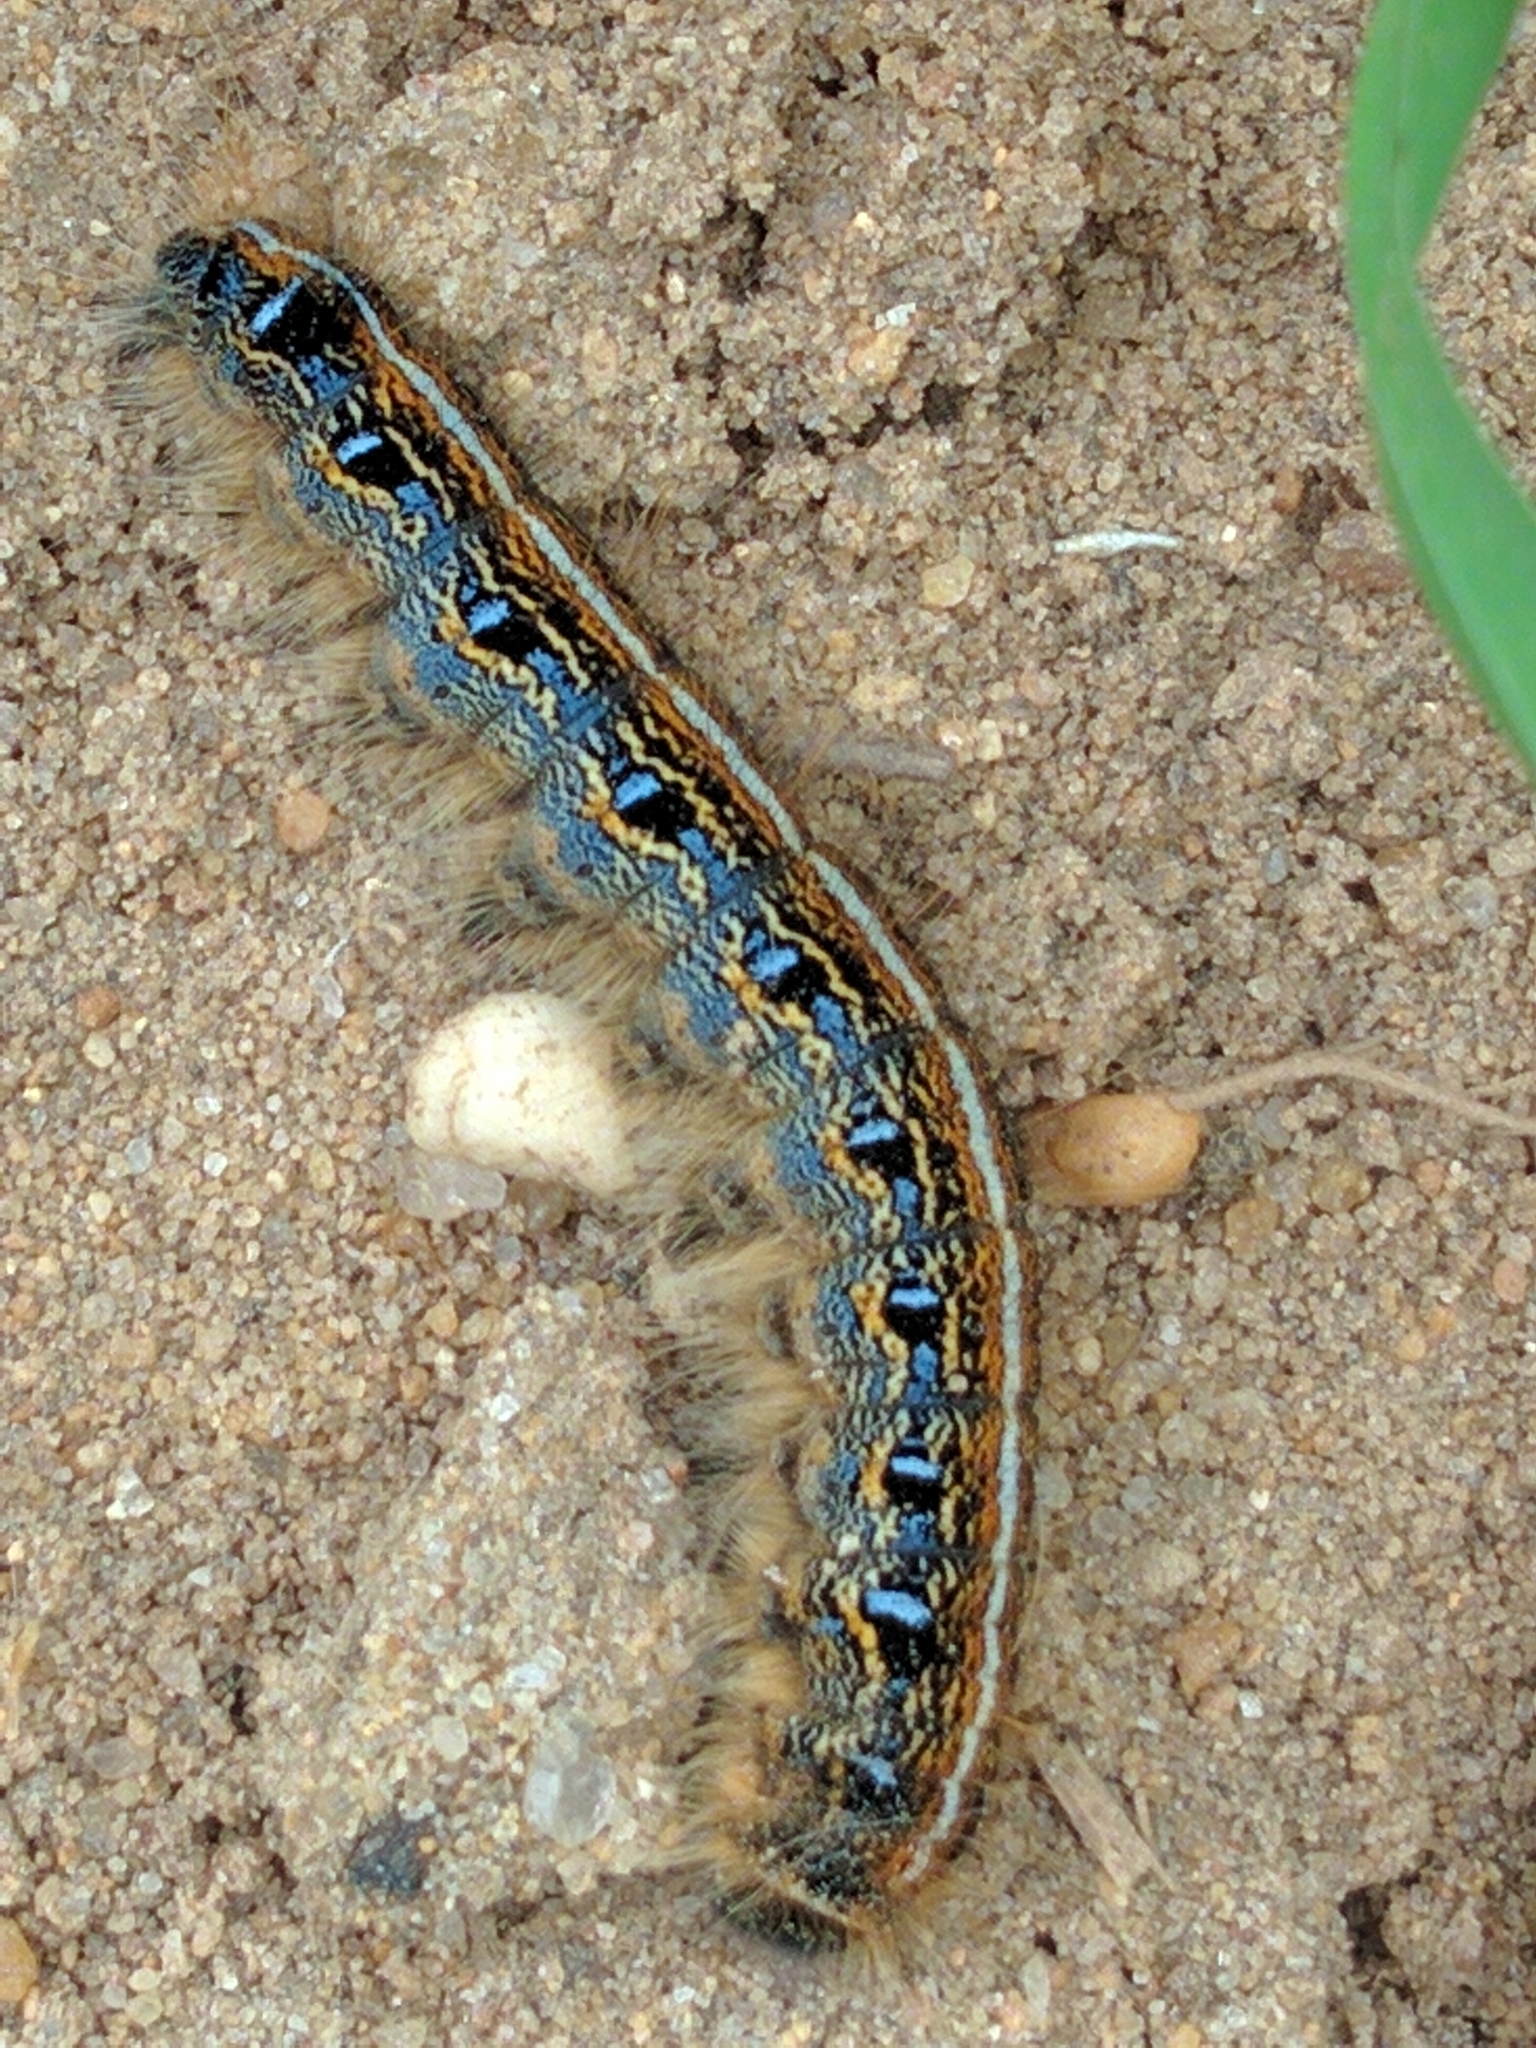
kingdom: Animalia
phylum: Arthropoda
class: Insecta
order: Lepidoptera
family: Lasiocampidae
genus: Malacosoma
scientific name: Malacosoma americana
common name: Eastern tent caterpillar moth
